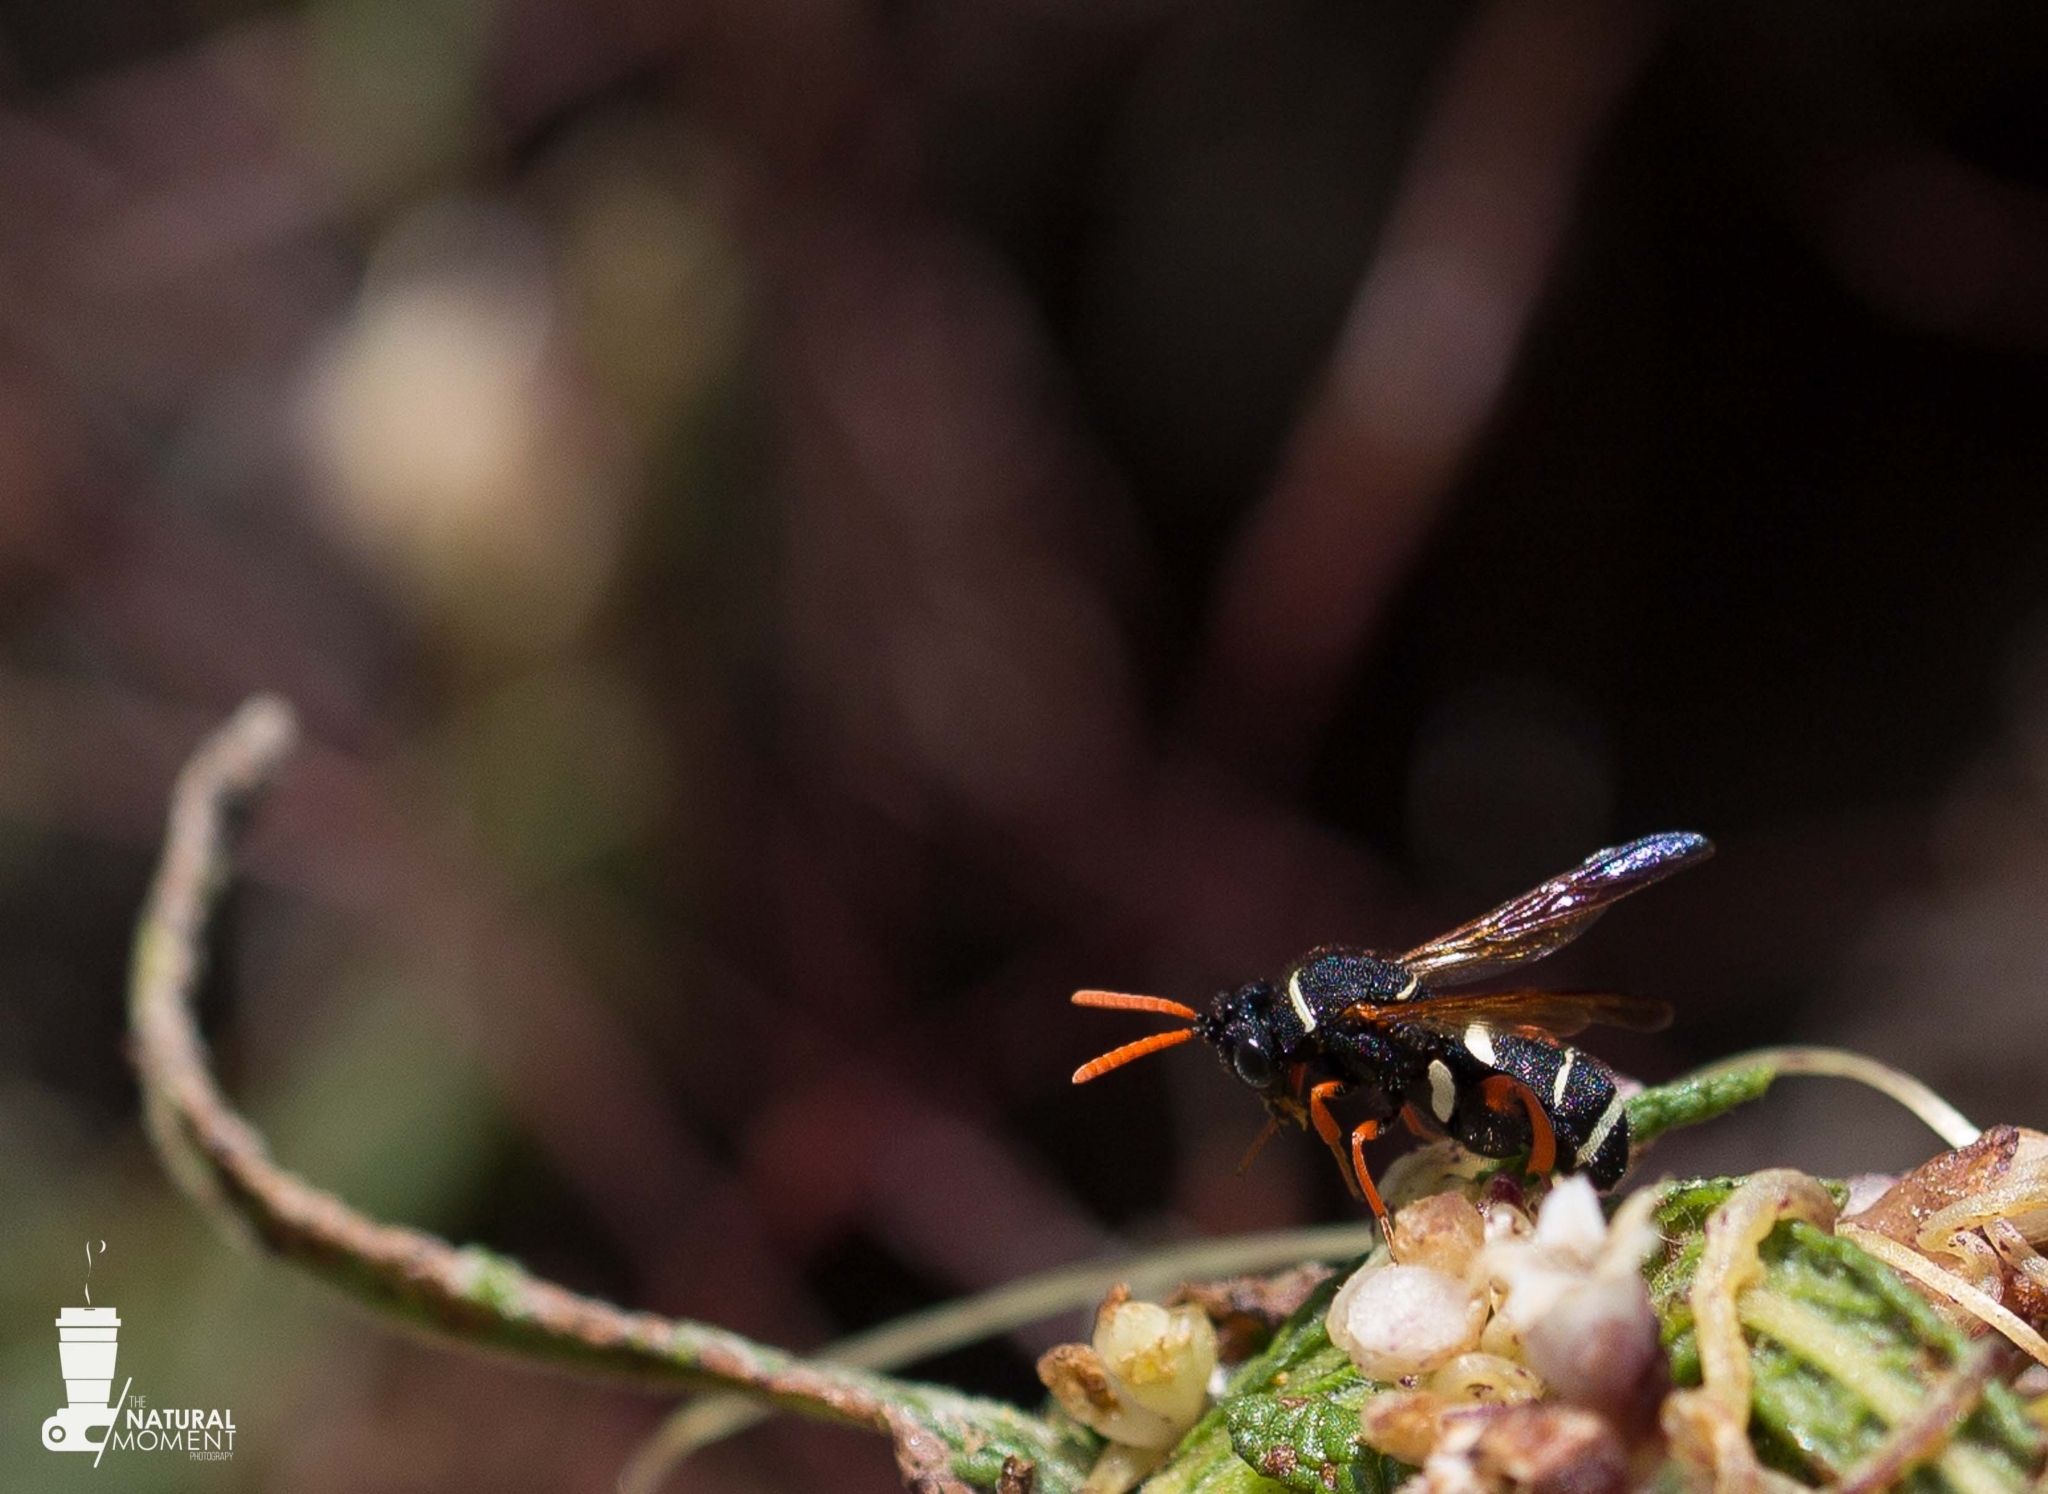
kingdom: Animalia
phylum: Arthropoda
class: Insecta
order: Hymenoptera
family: Leucospidae
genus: Leucospis
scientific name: Leucospis hopei
